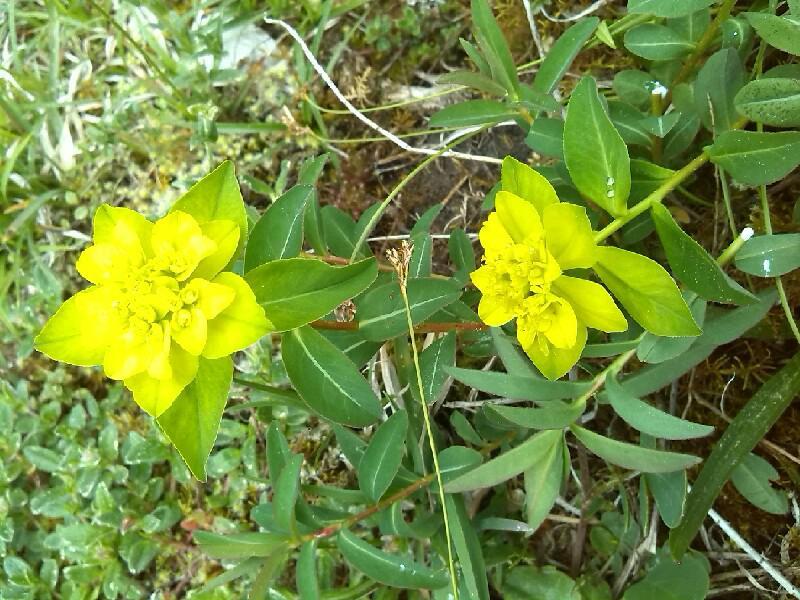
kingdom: Plantae
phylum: Tracheophyta
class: Magnoliopsida
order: Malpighiales
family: Euphorbiaceae
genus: Euphorbia
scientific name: Euphorbia verrucosa
